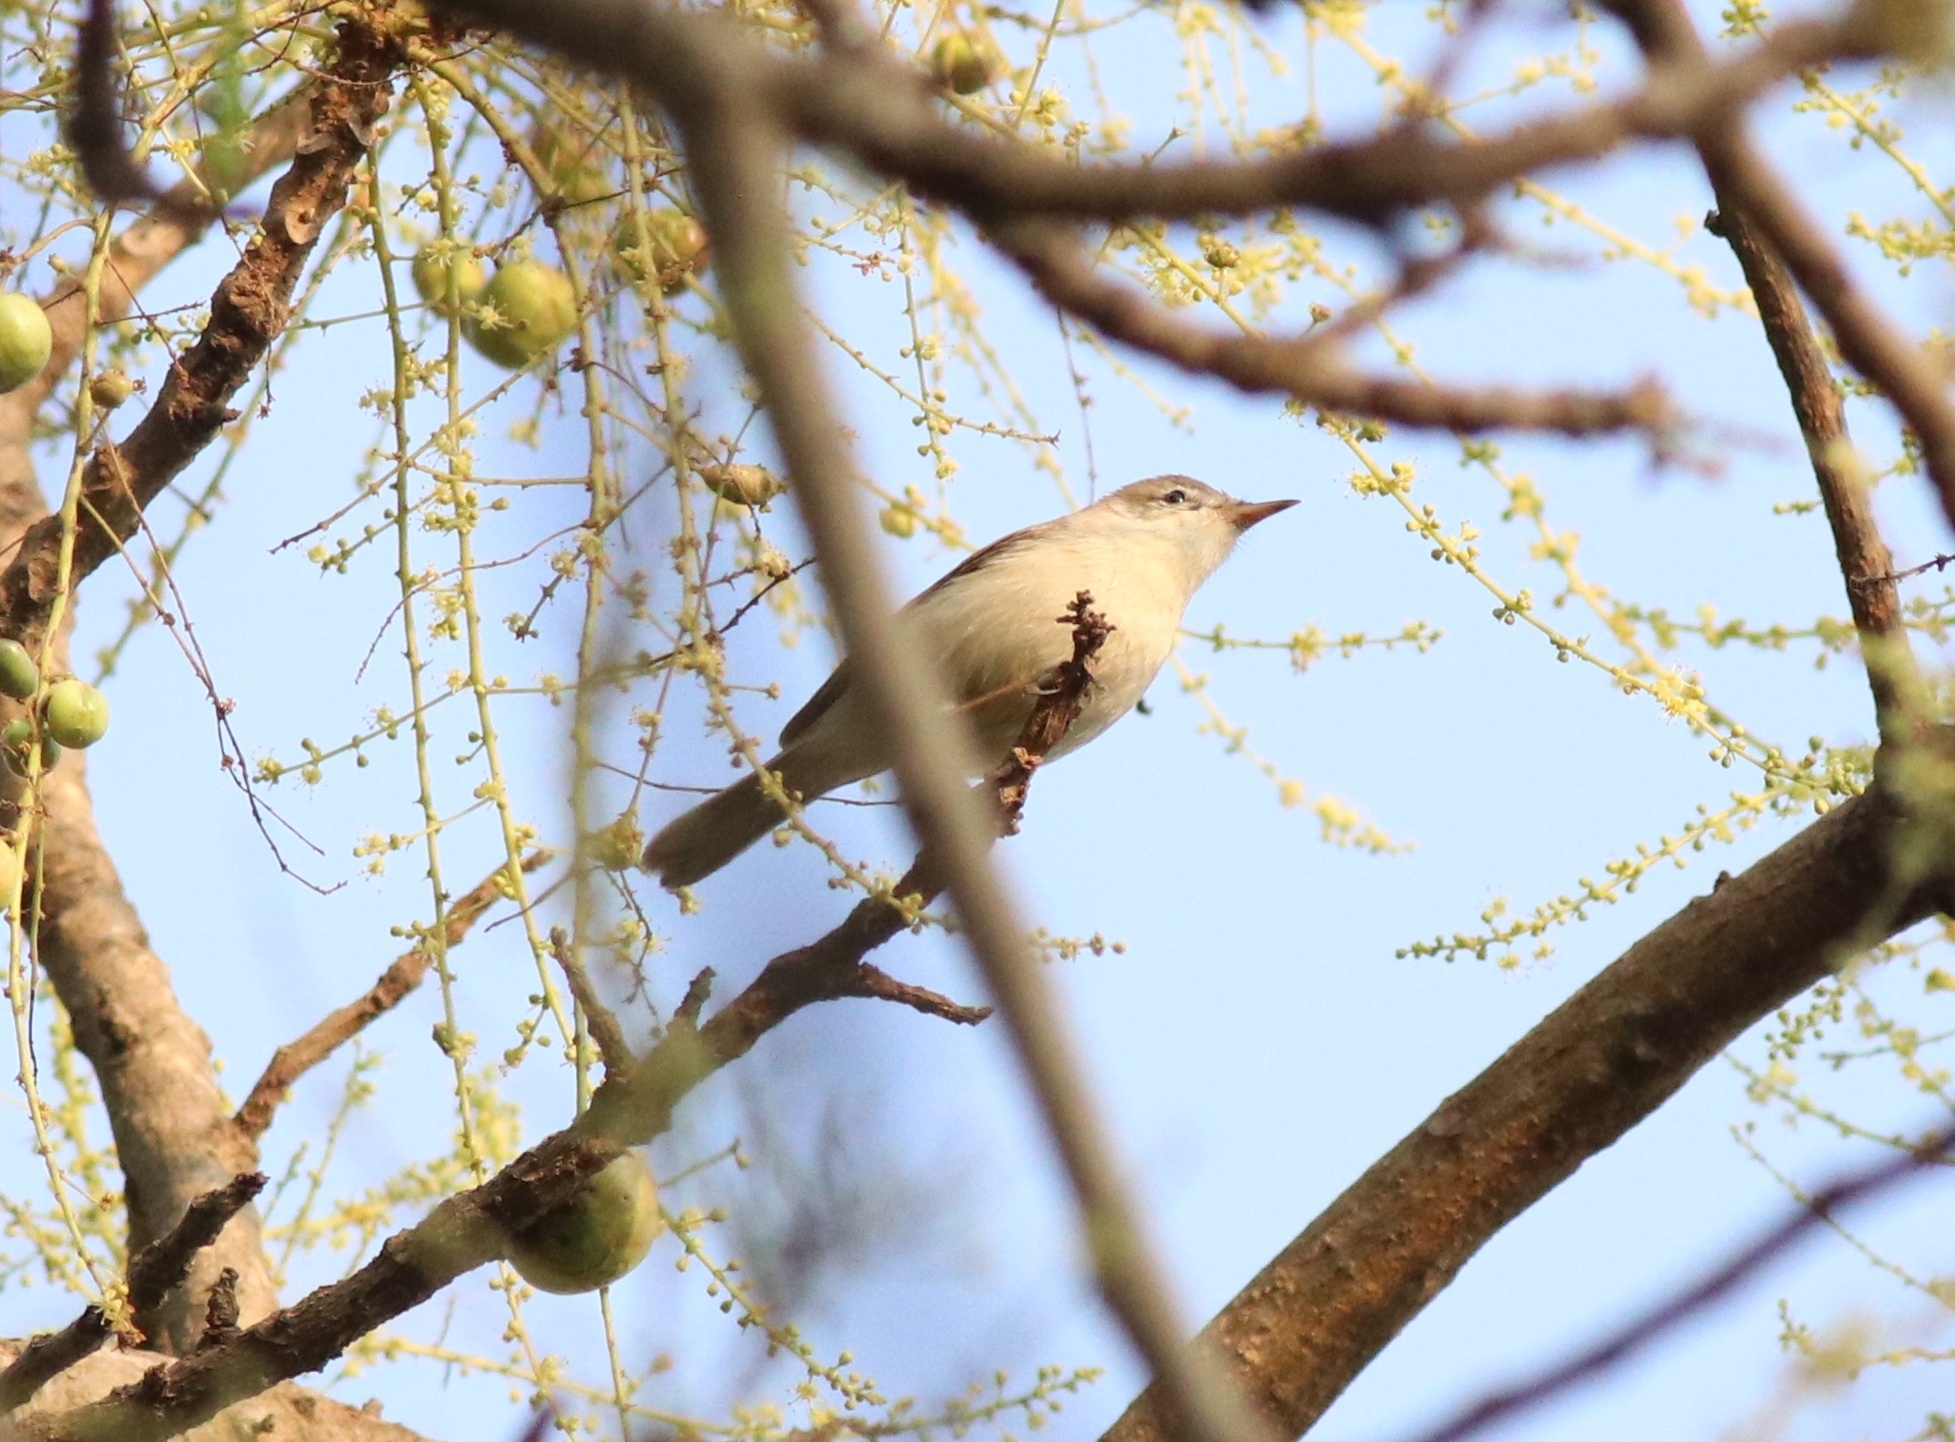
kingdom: Animalia
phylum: Chordata
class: Aves
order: Passeriformes
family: Acrocephalidae
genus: Iduna
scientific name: Iduna rama
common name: Sykes's warbler
